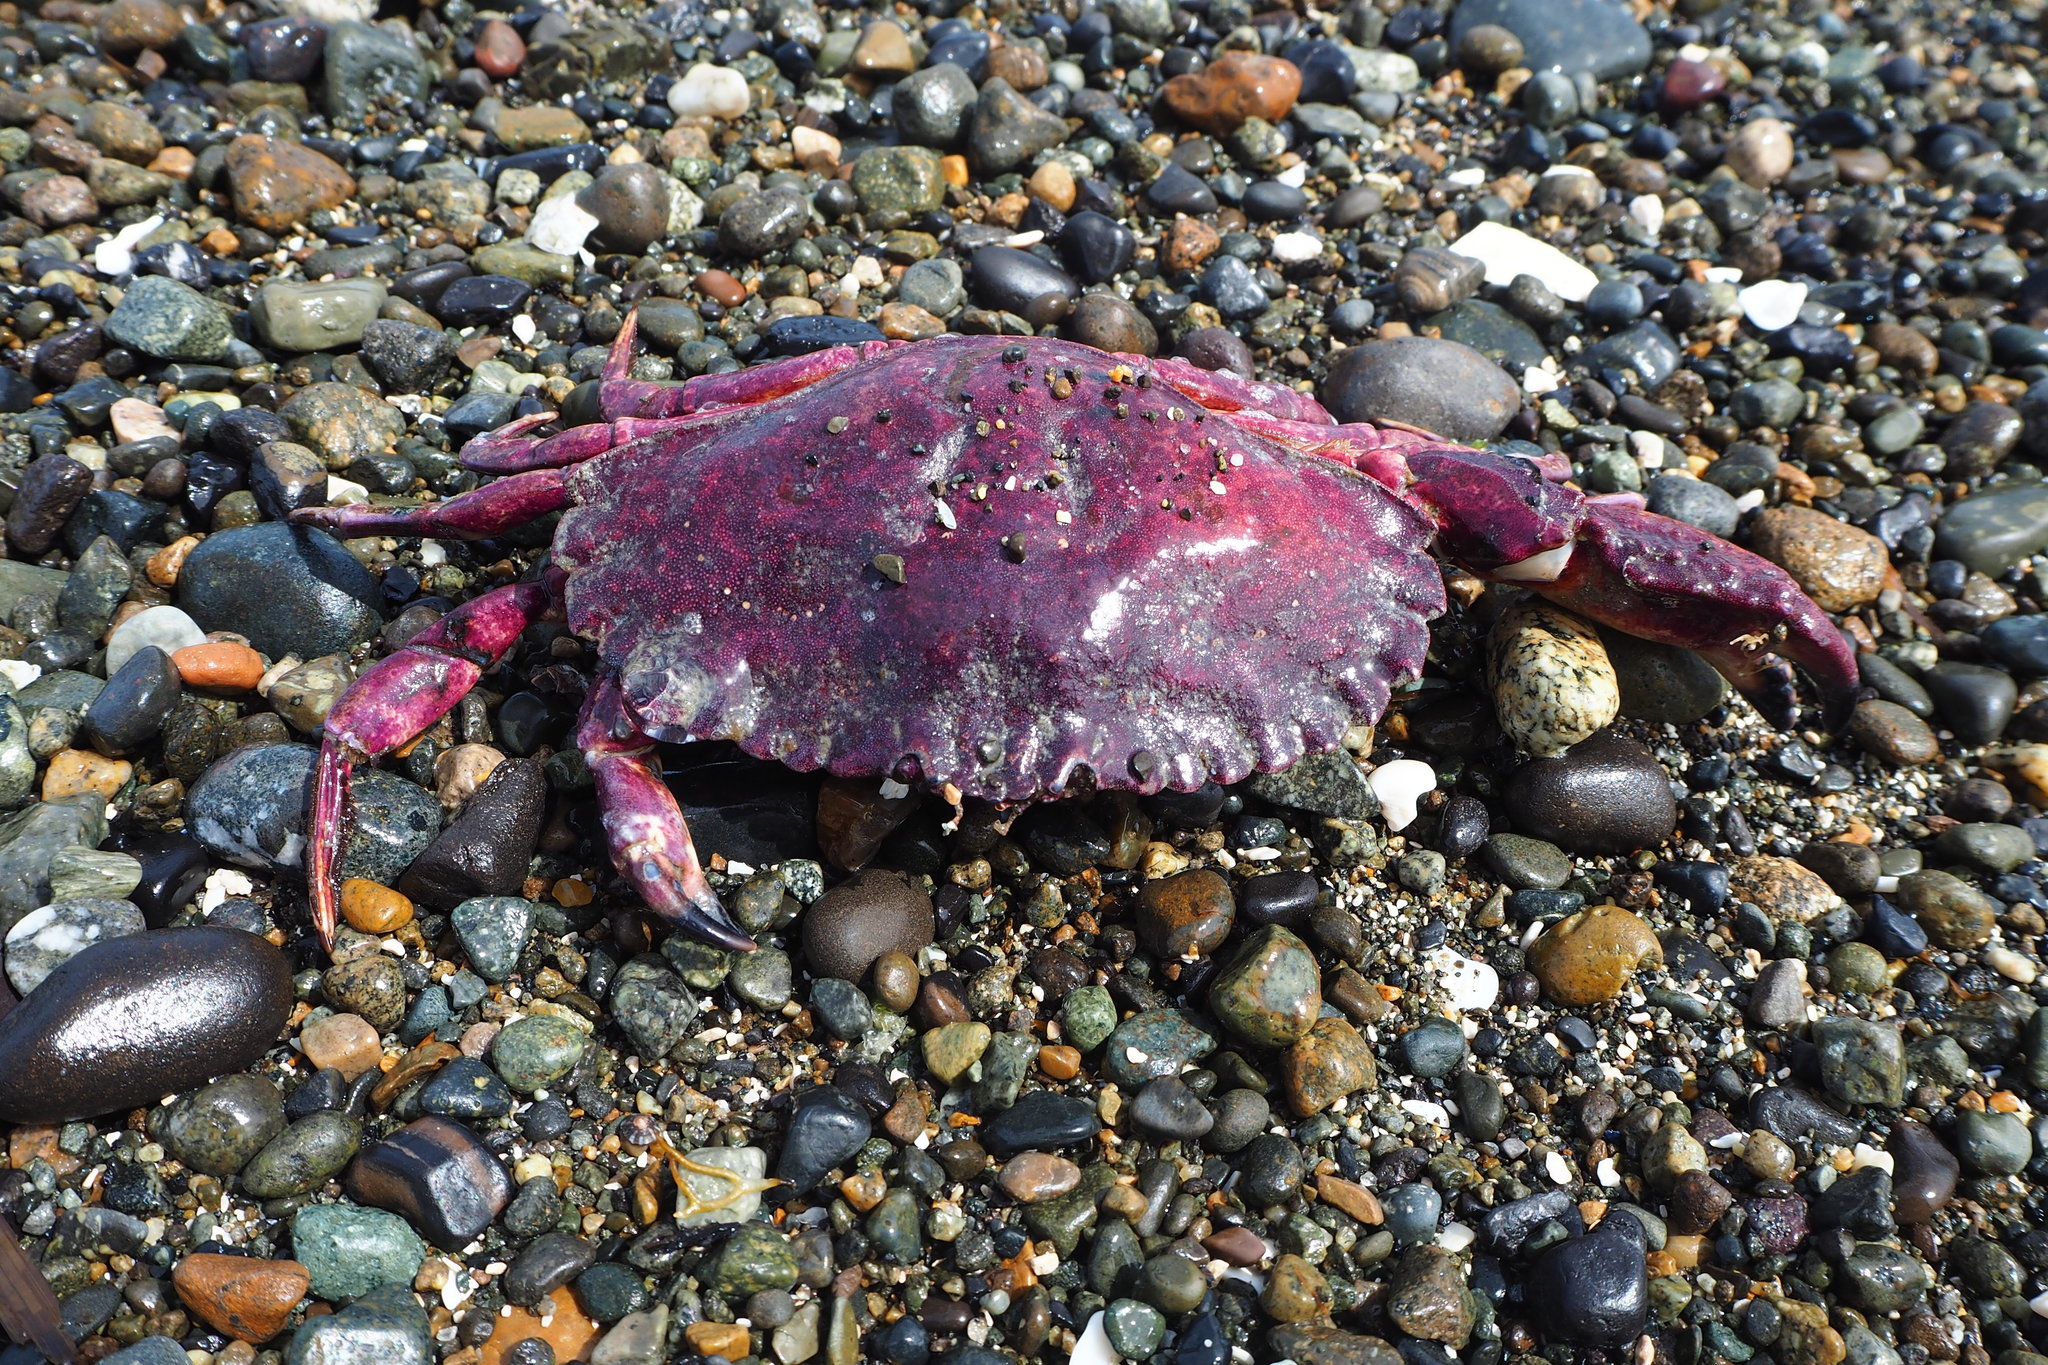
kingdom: Animalia
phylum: Arthropoda
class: Malacostraca
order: Decapoda
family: Cancridae
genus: Cancer
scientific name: Cancer productus
